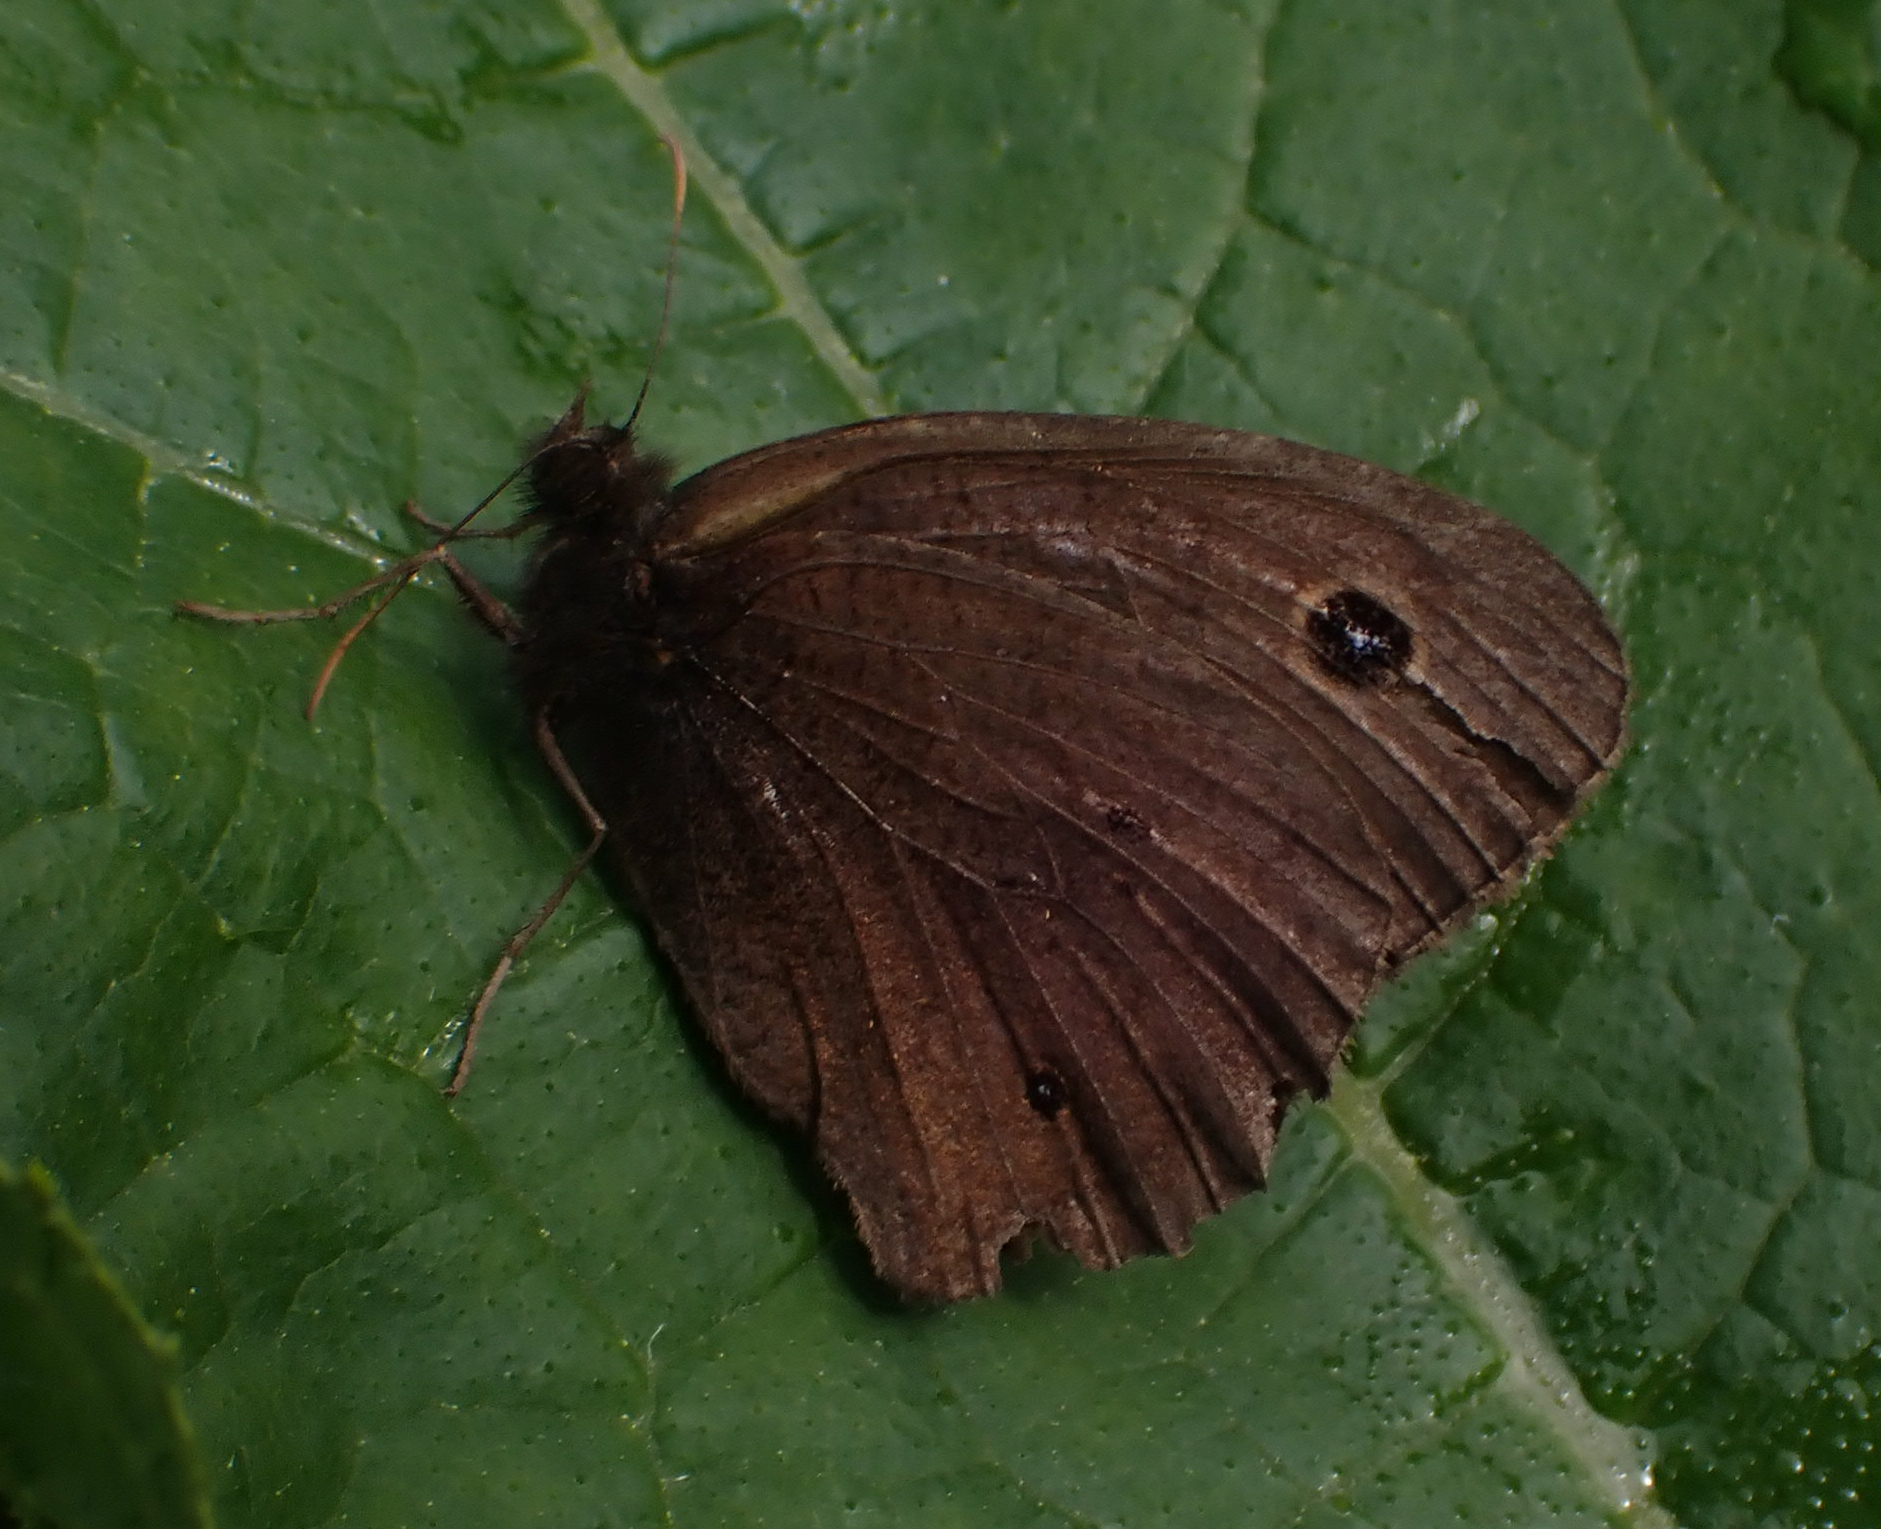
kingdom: Animalia
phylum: Arthropoda
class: Insecta
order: Lepidoptera
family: Nymphalidae
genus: Cercyonis
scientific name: Cercyonis pegala
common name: Common wood-nymph
